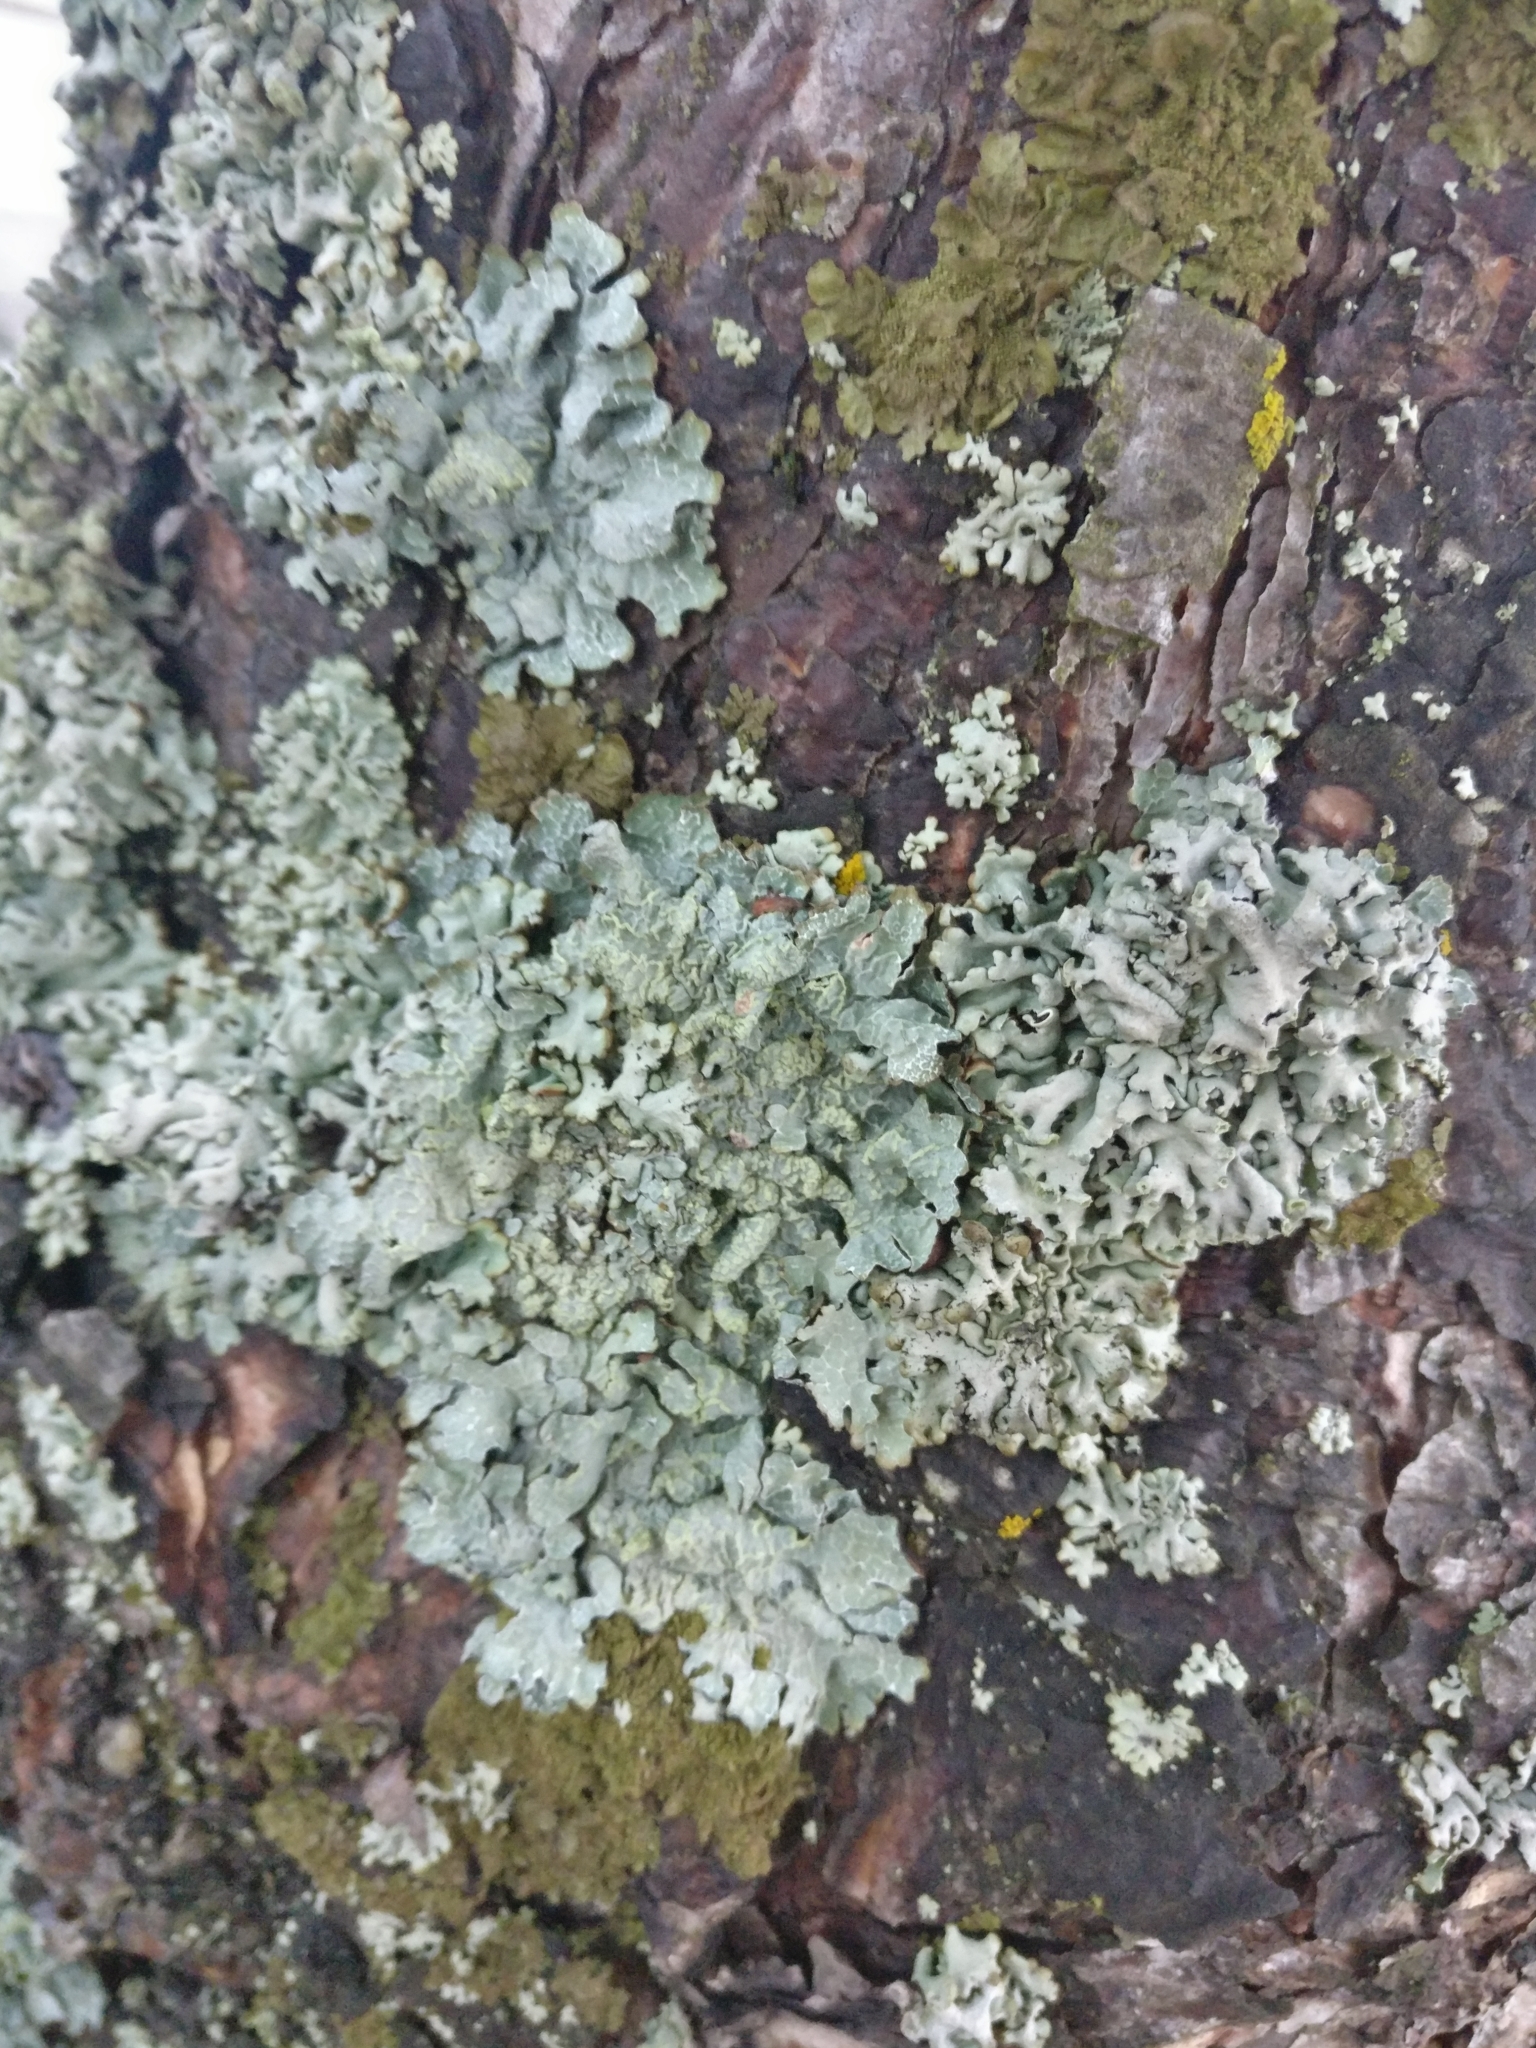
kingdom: Fungi
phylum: Ascomycota
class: Lecanoromycetes
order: Lecanorales
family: Parmeliaceae
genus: Hypogymnia
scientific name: Hypogymnia physodes
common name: Dark crottle
